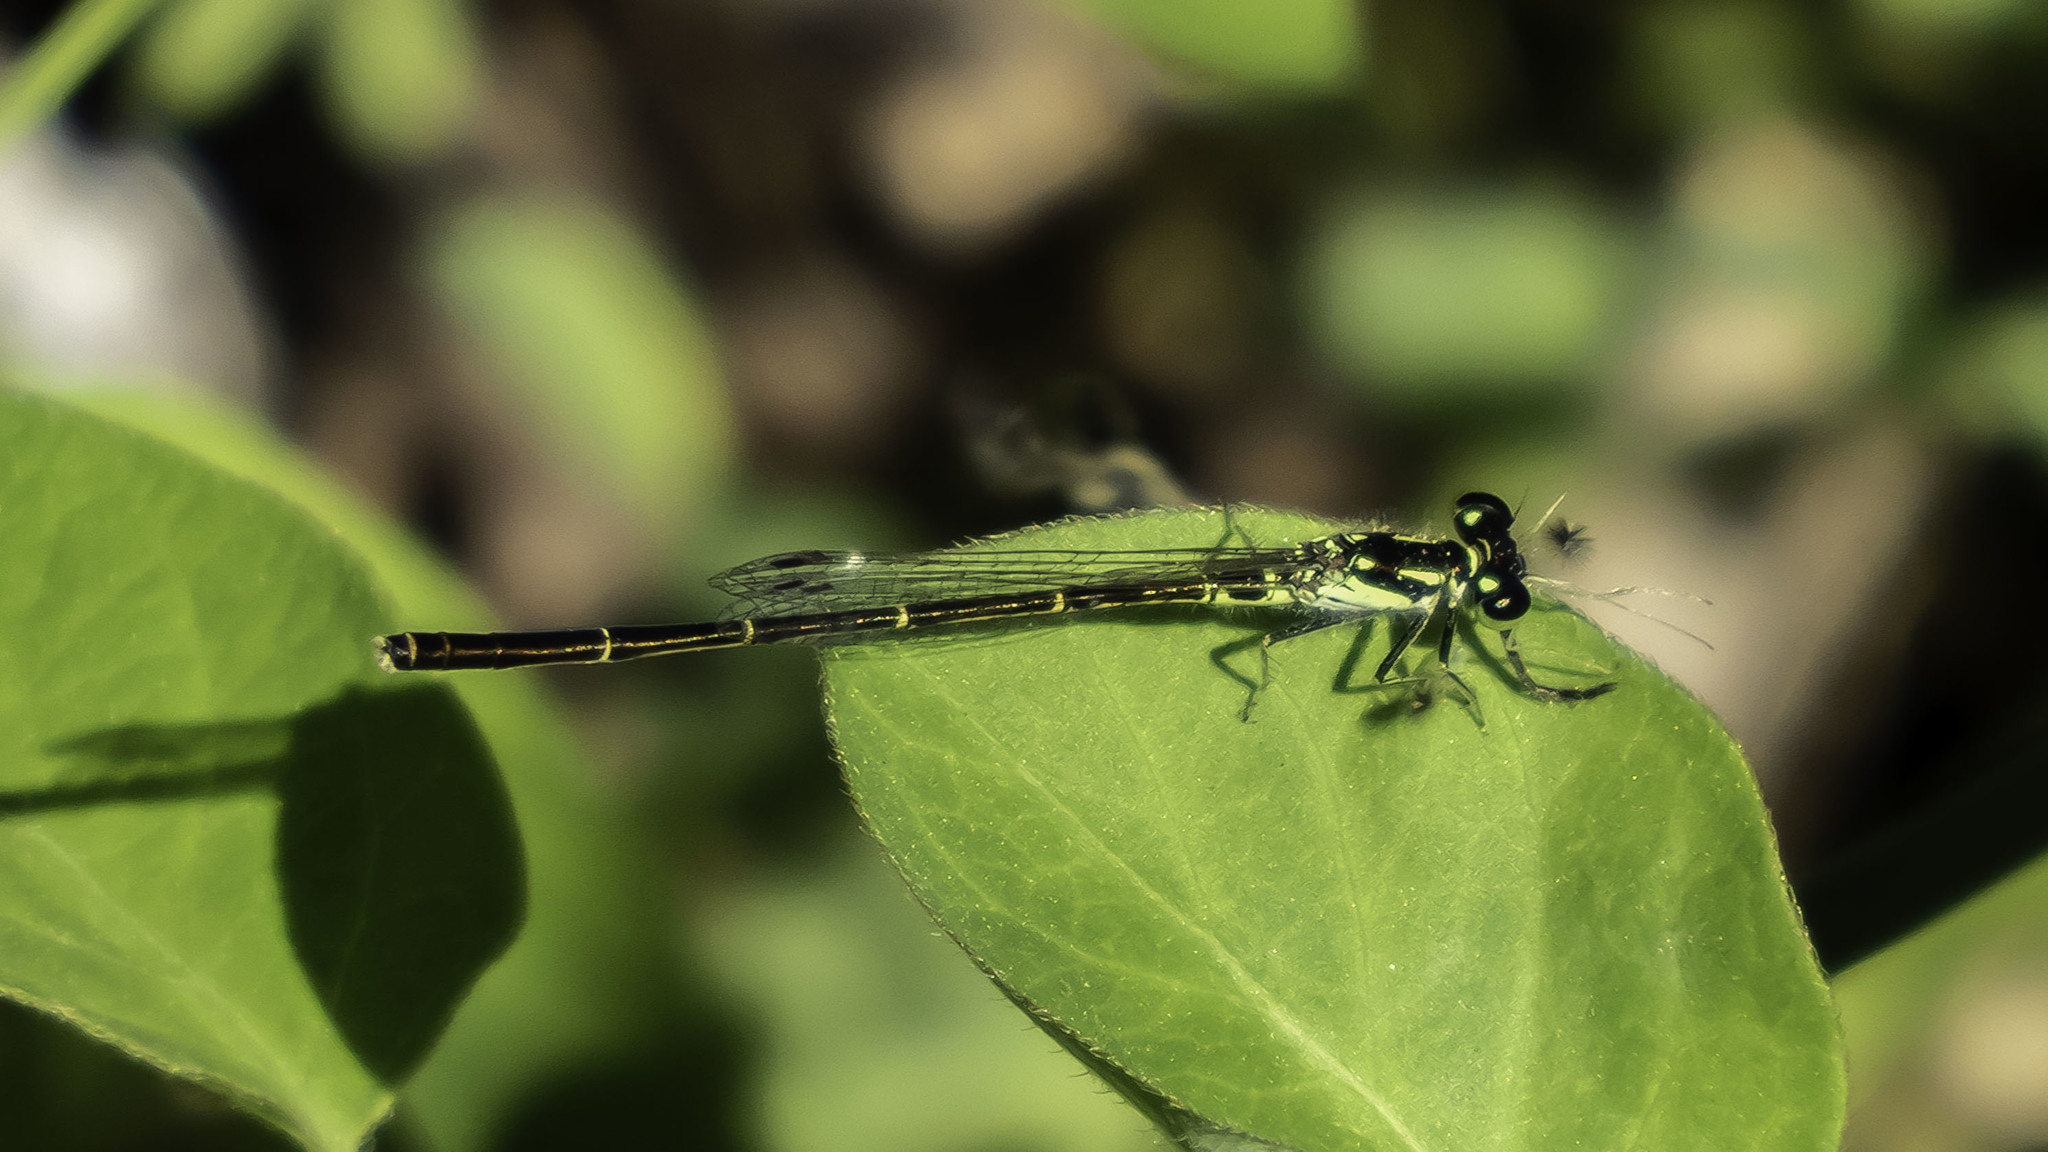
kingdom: Animalia
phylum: Arthropoda
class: Insecta
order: Odonata
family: Coenagrionidae
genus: Ischnura
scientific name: Ischnura posita
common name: Fragile forktail
